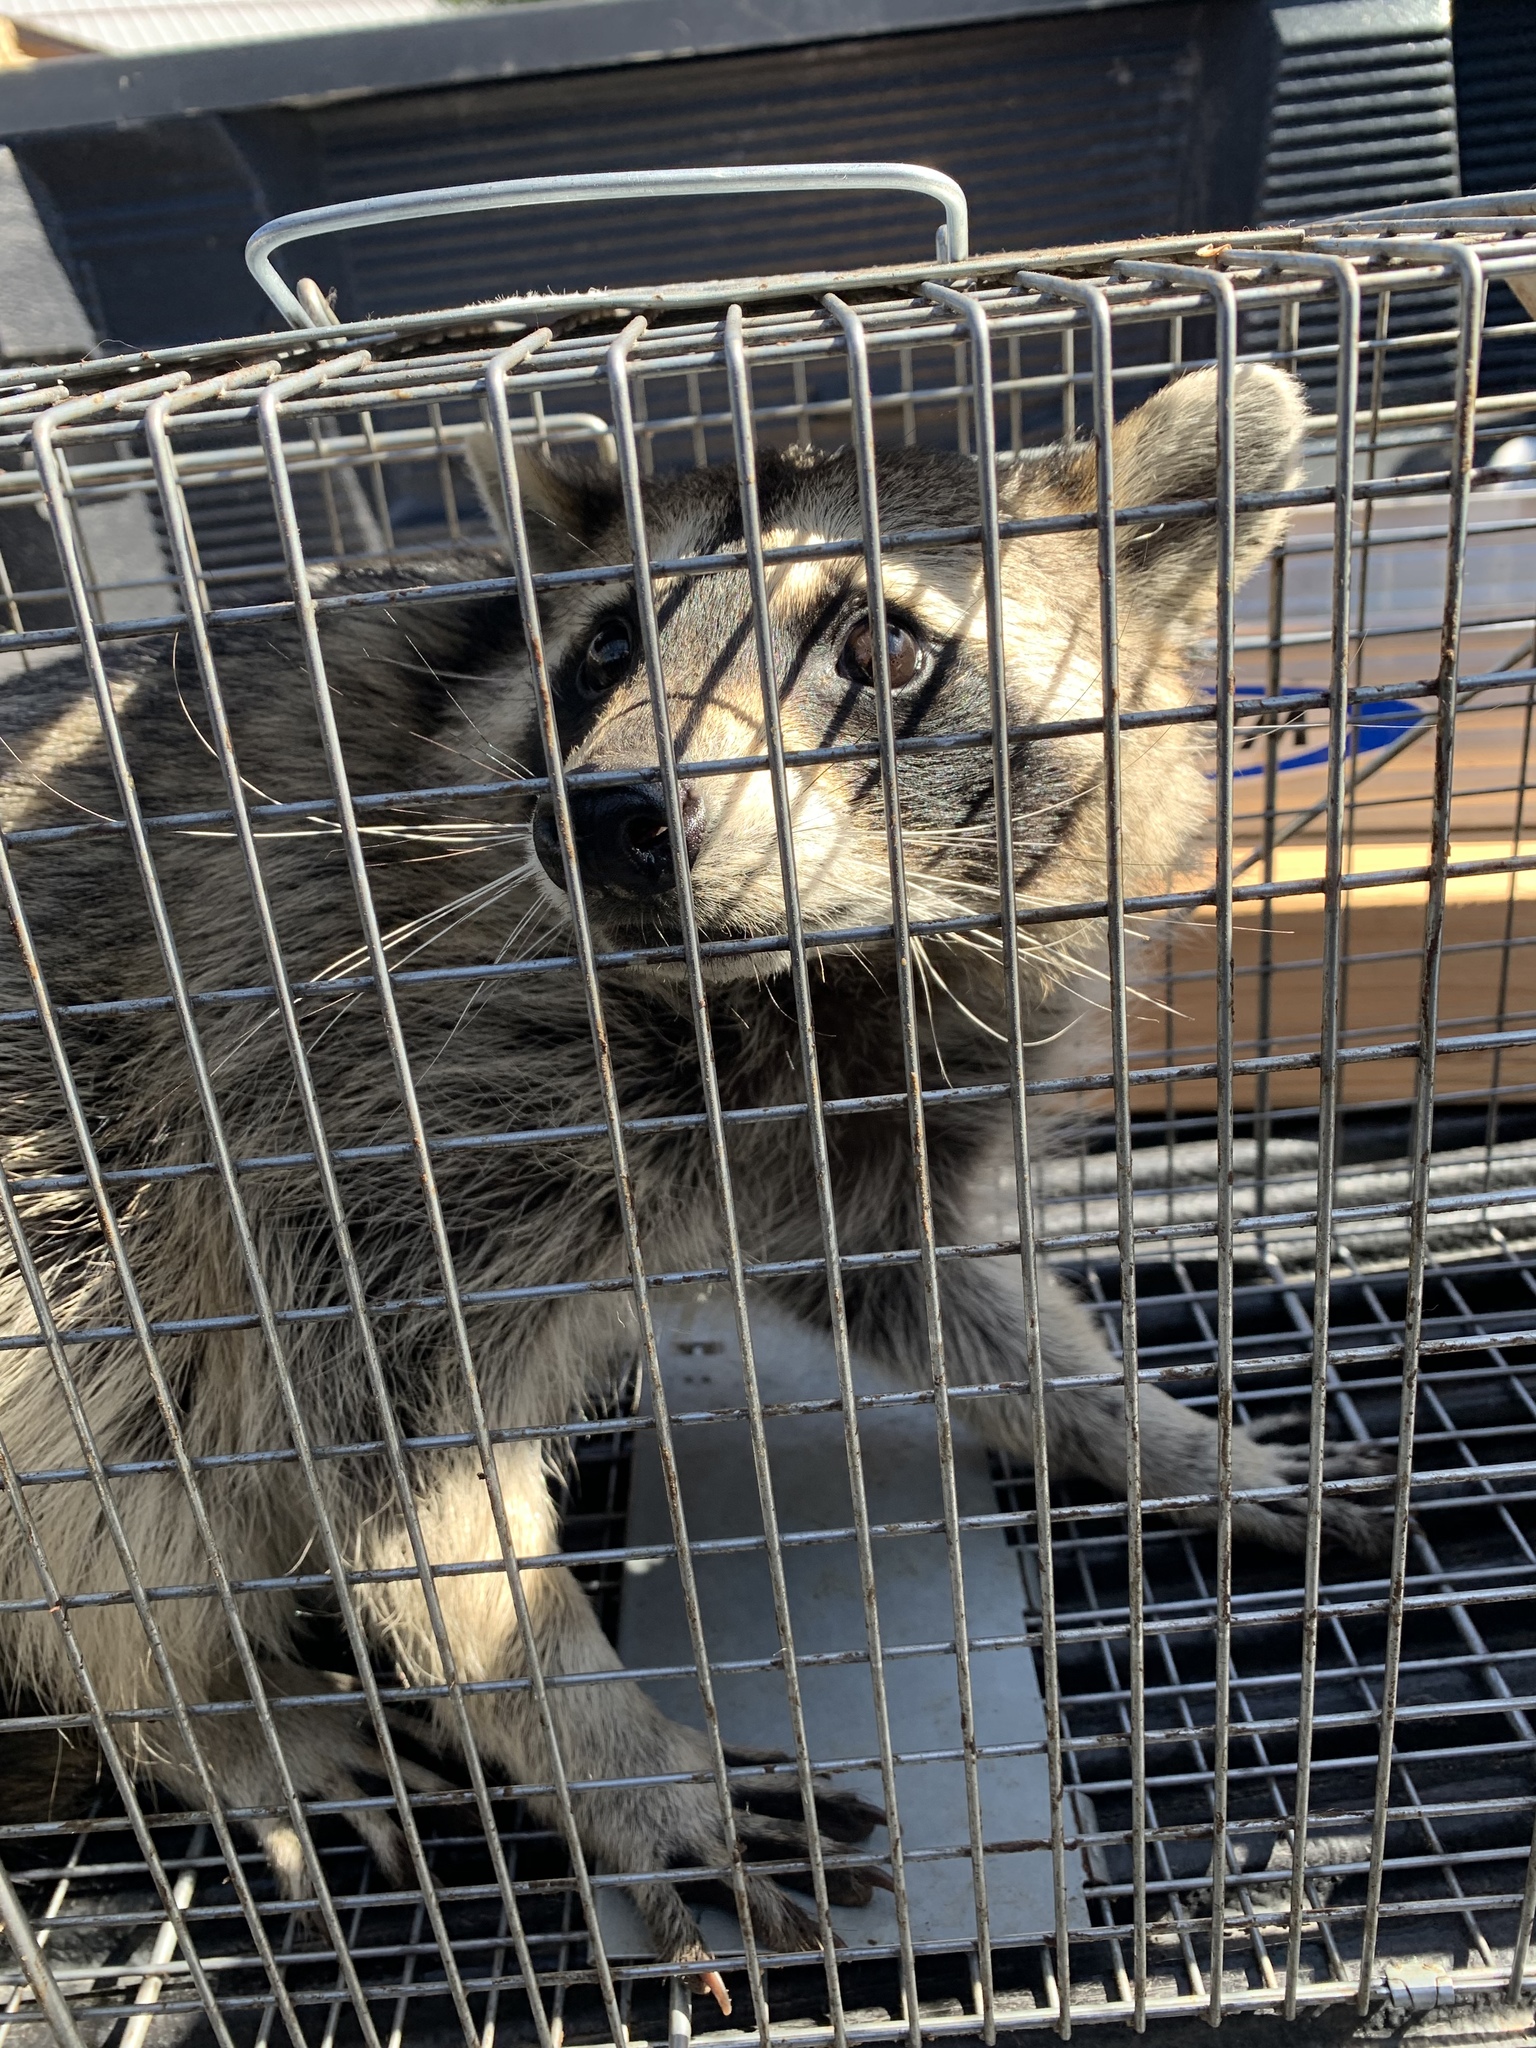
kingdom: Animalia
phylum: Chordata
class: Mammalia
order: Carnivora
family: Procyonidae
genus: Procyon
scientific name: Procyon lotor
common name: Raccoon
